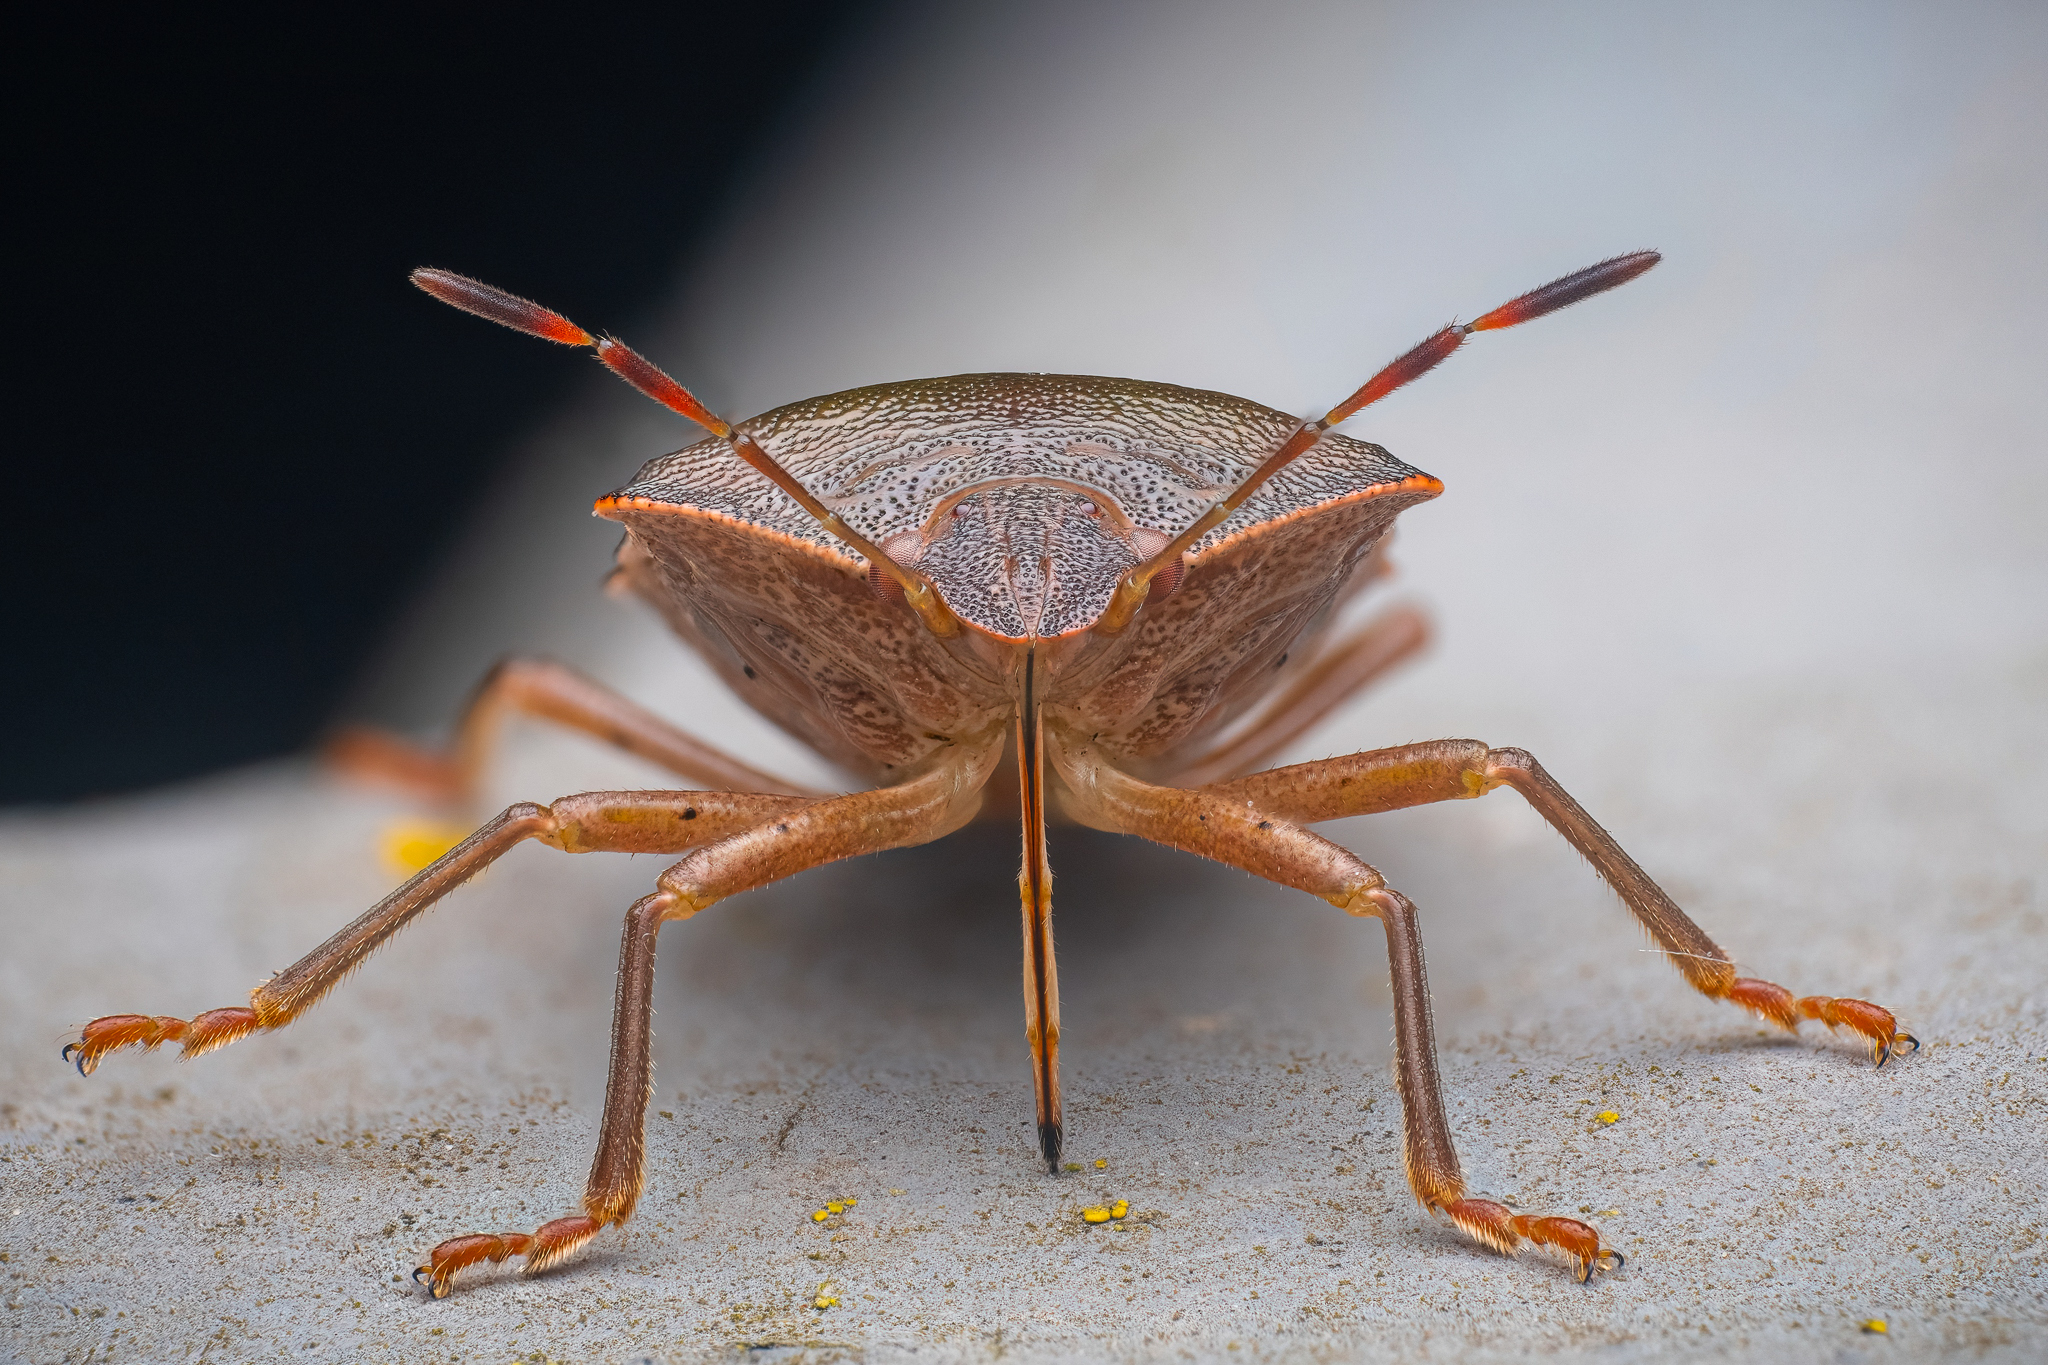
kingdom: Animalia
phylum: Arthropoda
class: Insecta
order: Hemiptera
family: Pentatomidae
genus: Palomena
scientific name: Palomena prasina
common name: Green shieldbug
